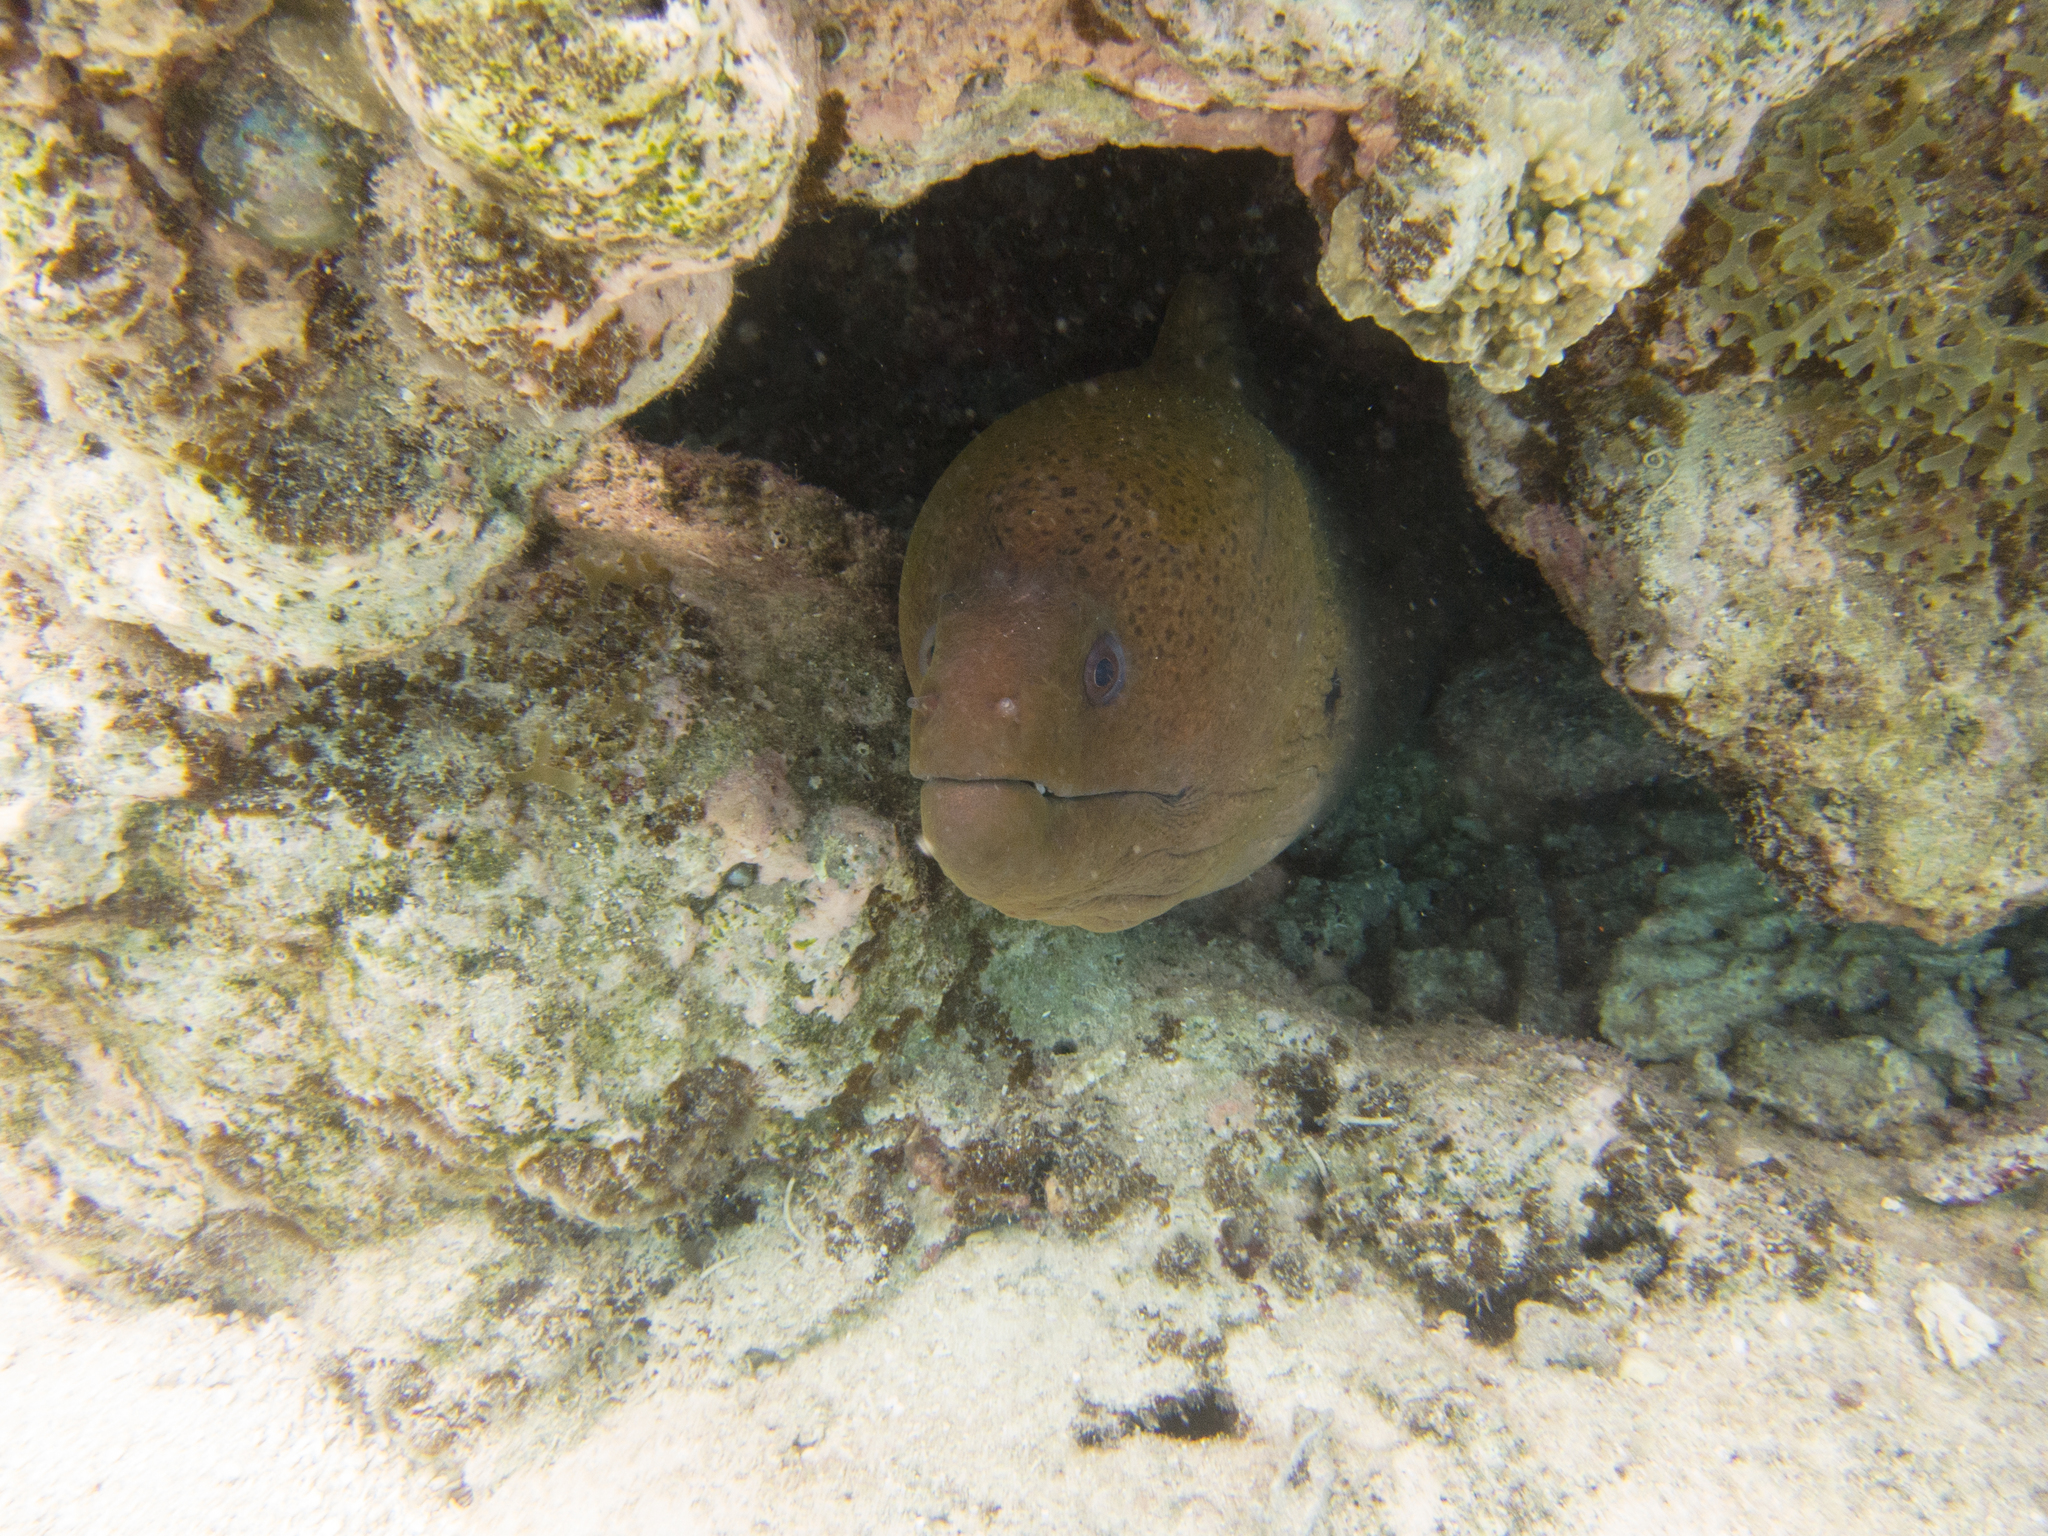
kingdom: Animalia
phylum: Chordata
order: Anguilliformes
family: Muraenidae
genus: Gymnothorax
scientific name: Gymnothorax javanicus
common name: Giant moray
